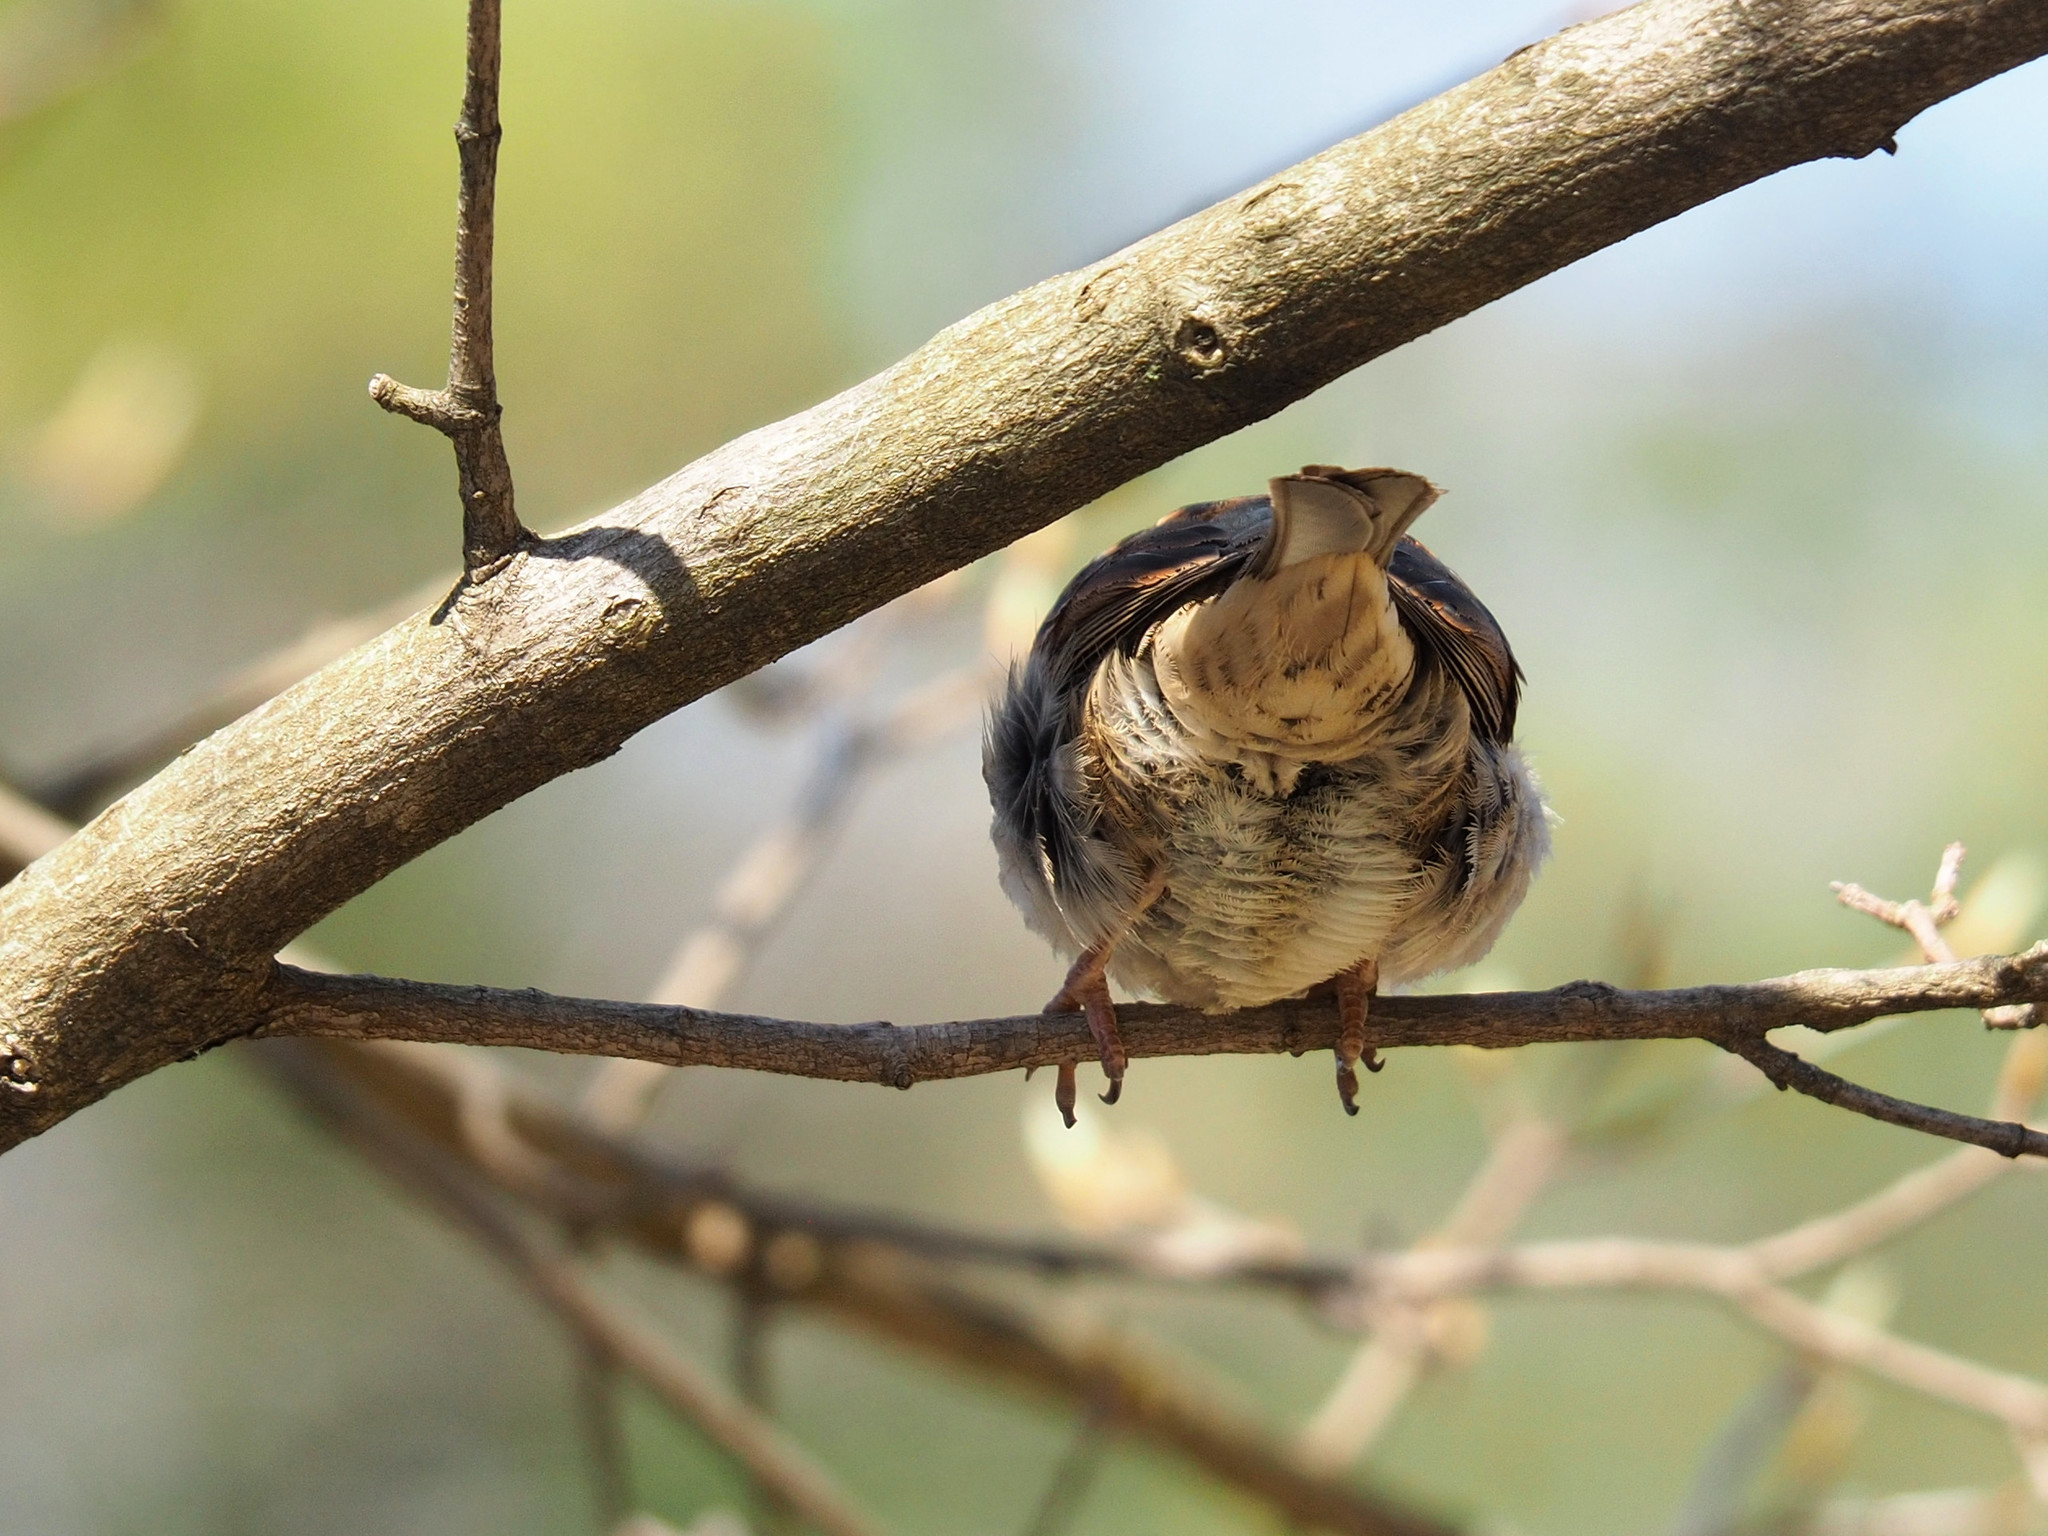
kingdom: Animalia
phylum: Chordata
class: Aves
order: Passeriformes
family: Passeridae
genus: Passer
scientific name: Passer domesticus
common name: House sparrow
